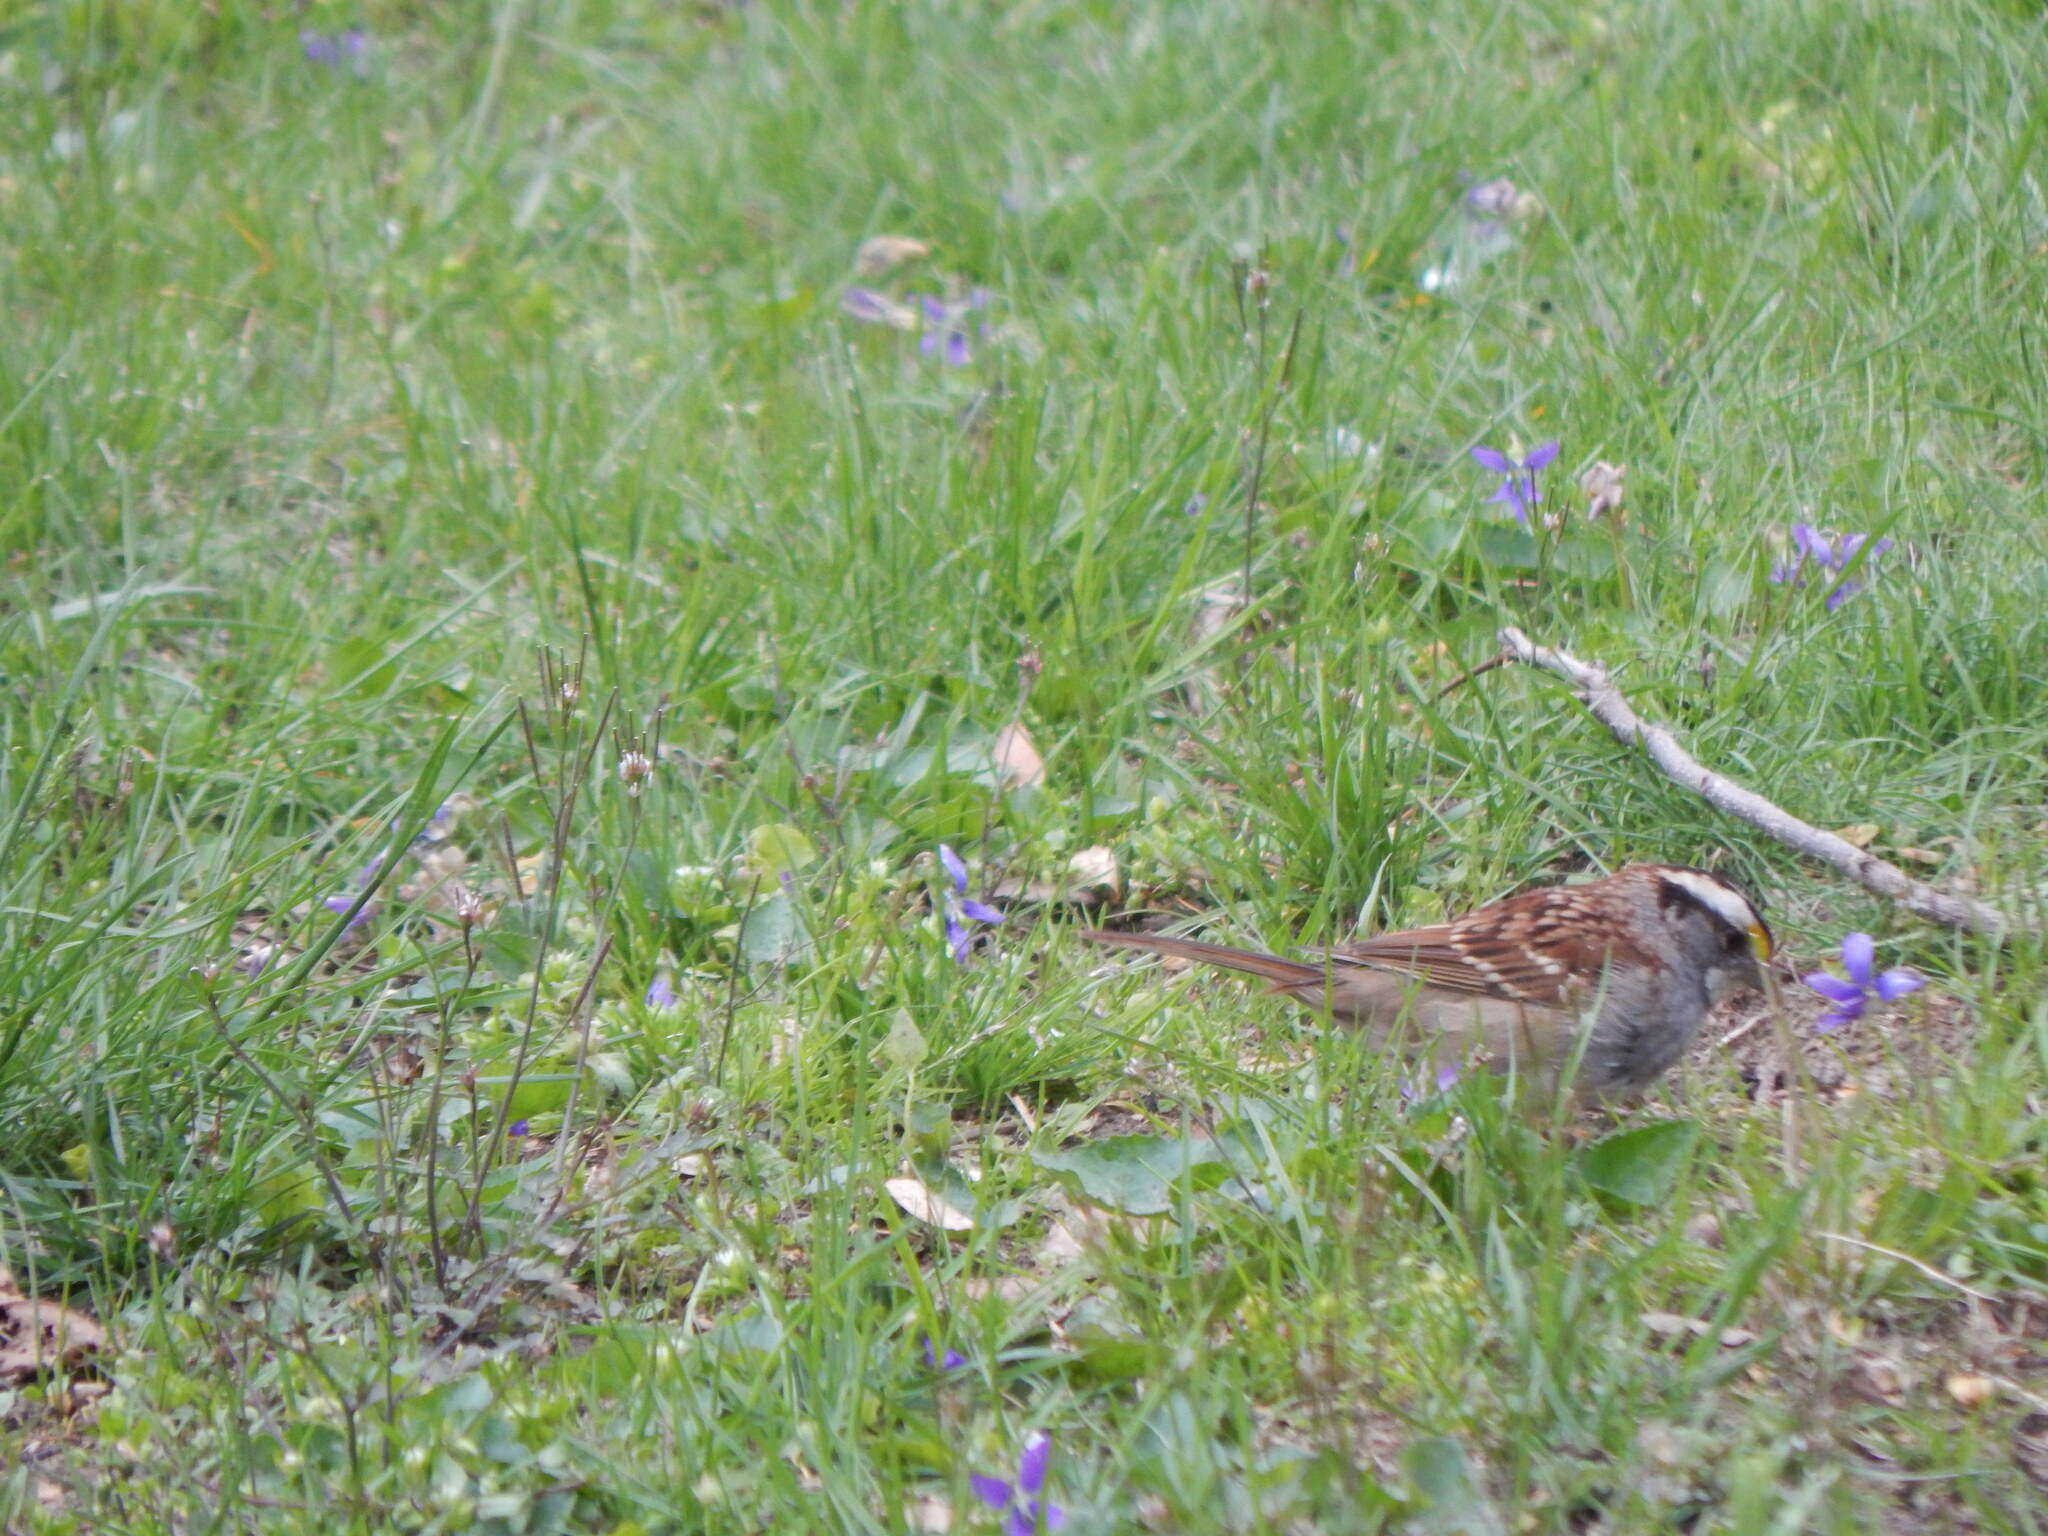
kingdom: Animalia
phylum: Chordata
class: Aves
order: Passeriformes
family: Passerellidae
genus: Zonotrichia
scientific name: Zonotrichia albicollis
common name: White-throated sparrow
